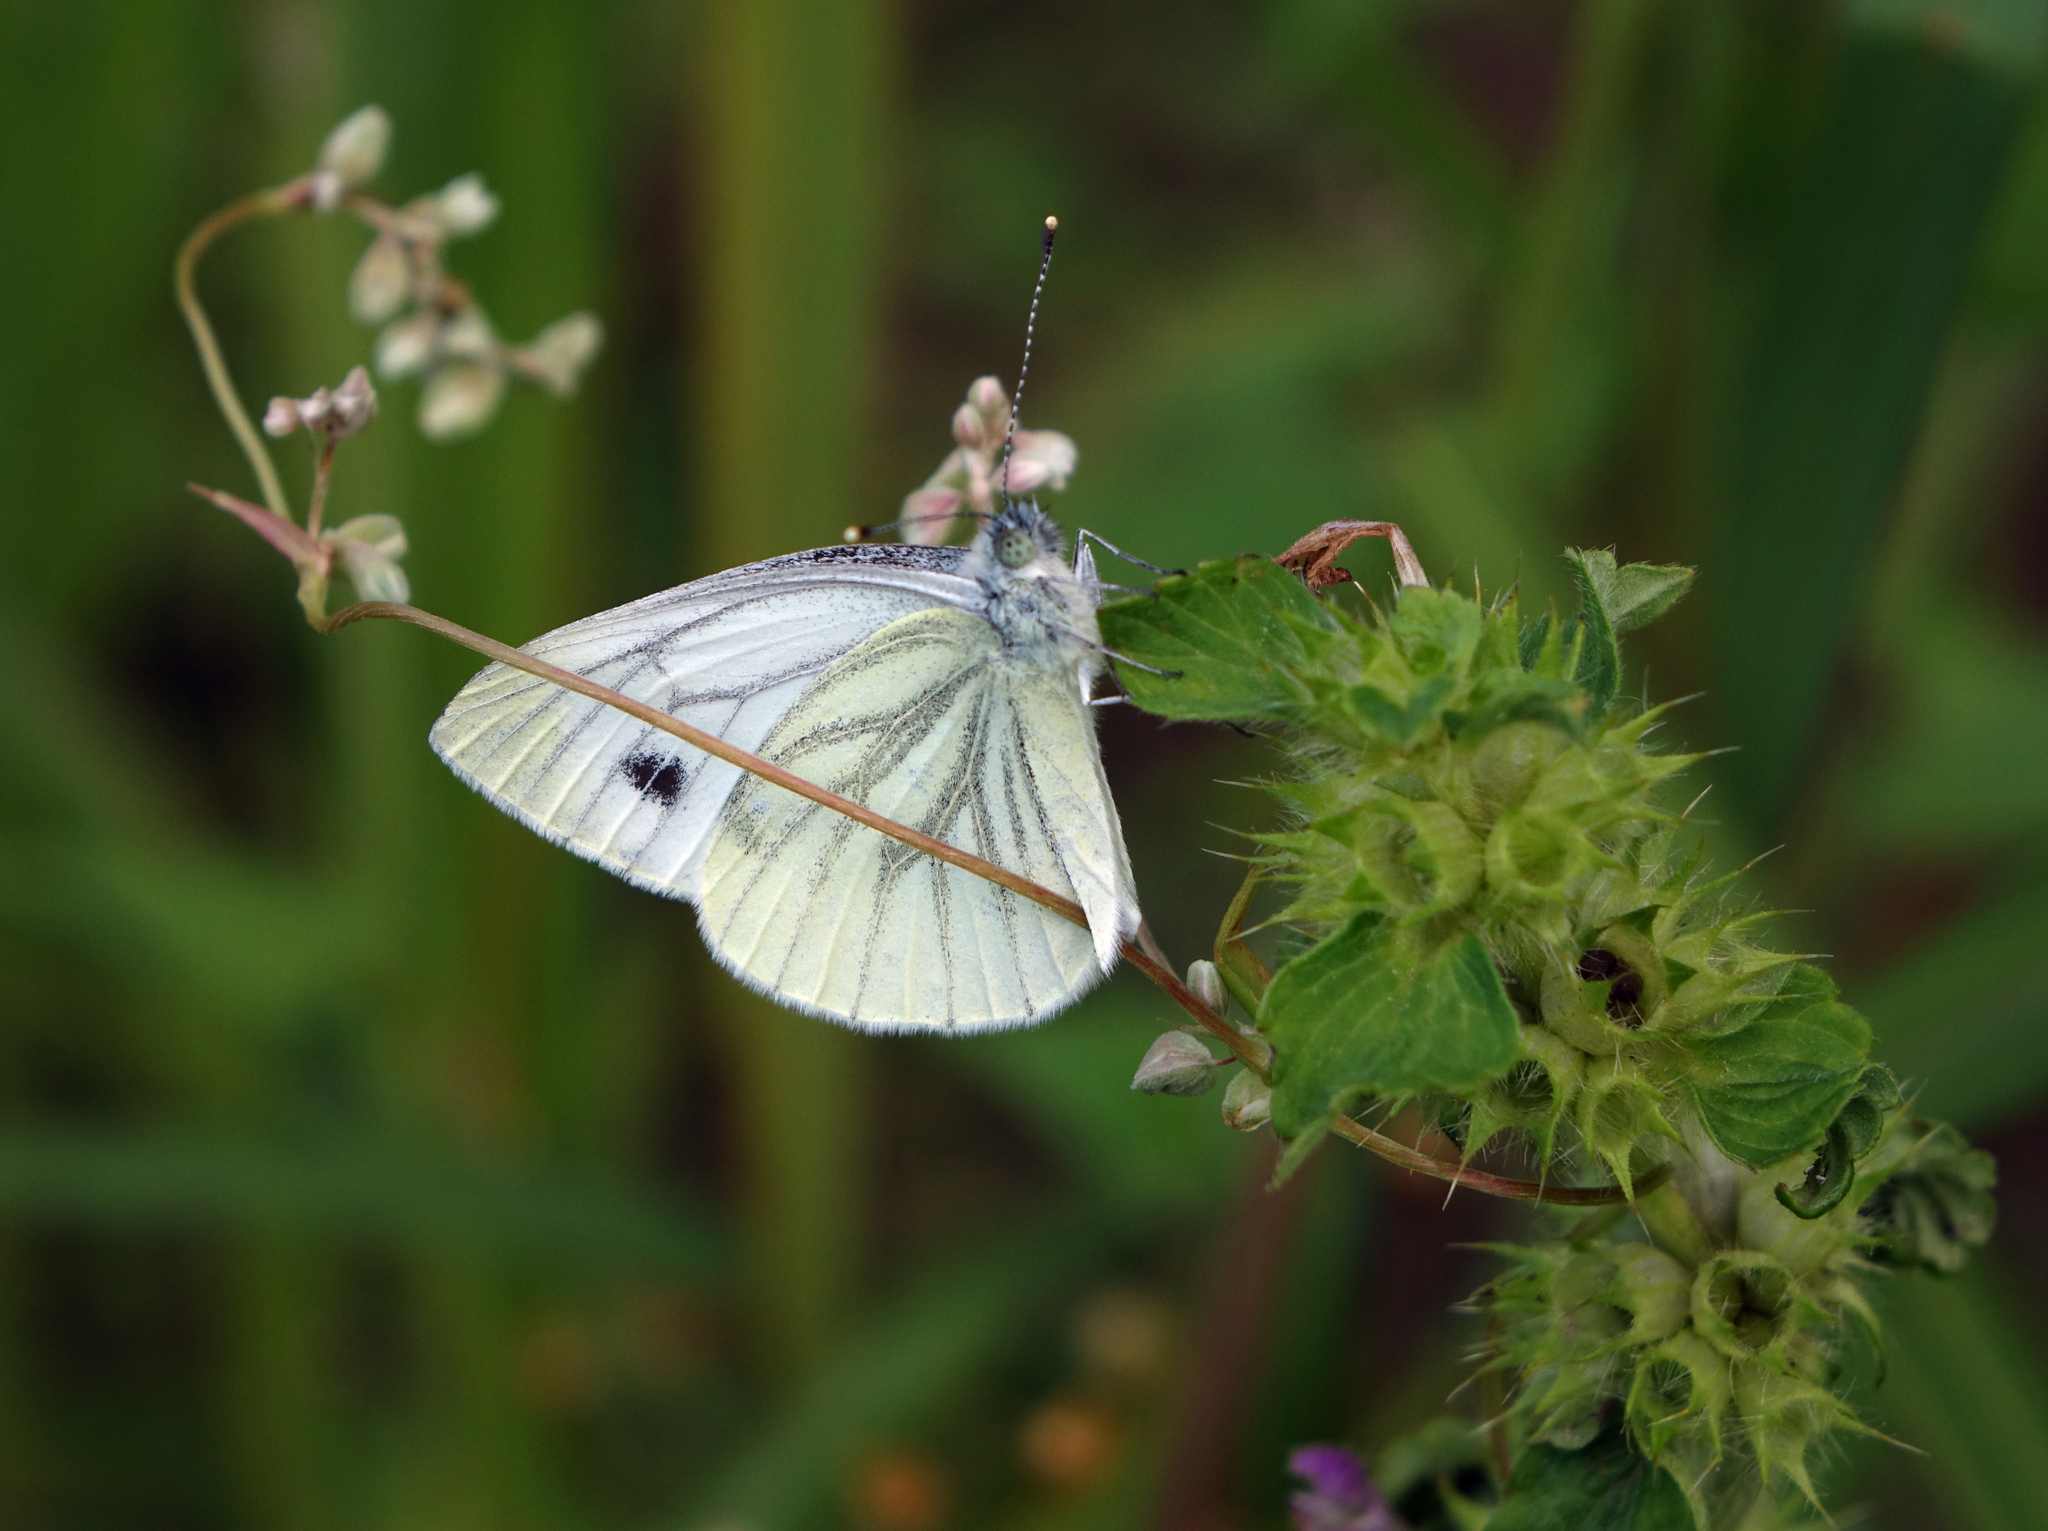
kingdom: Animalia
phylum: Arthropoda
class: Insecta
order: Lepidoptera
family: Pieridae
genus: Pieris
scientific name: Pieris napi
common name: Green-veined white
